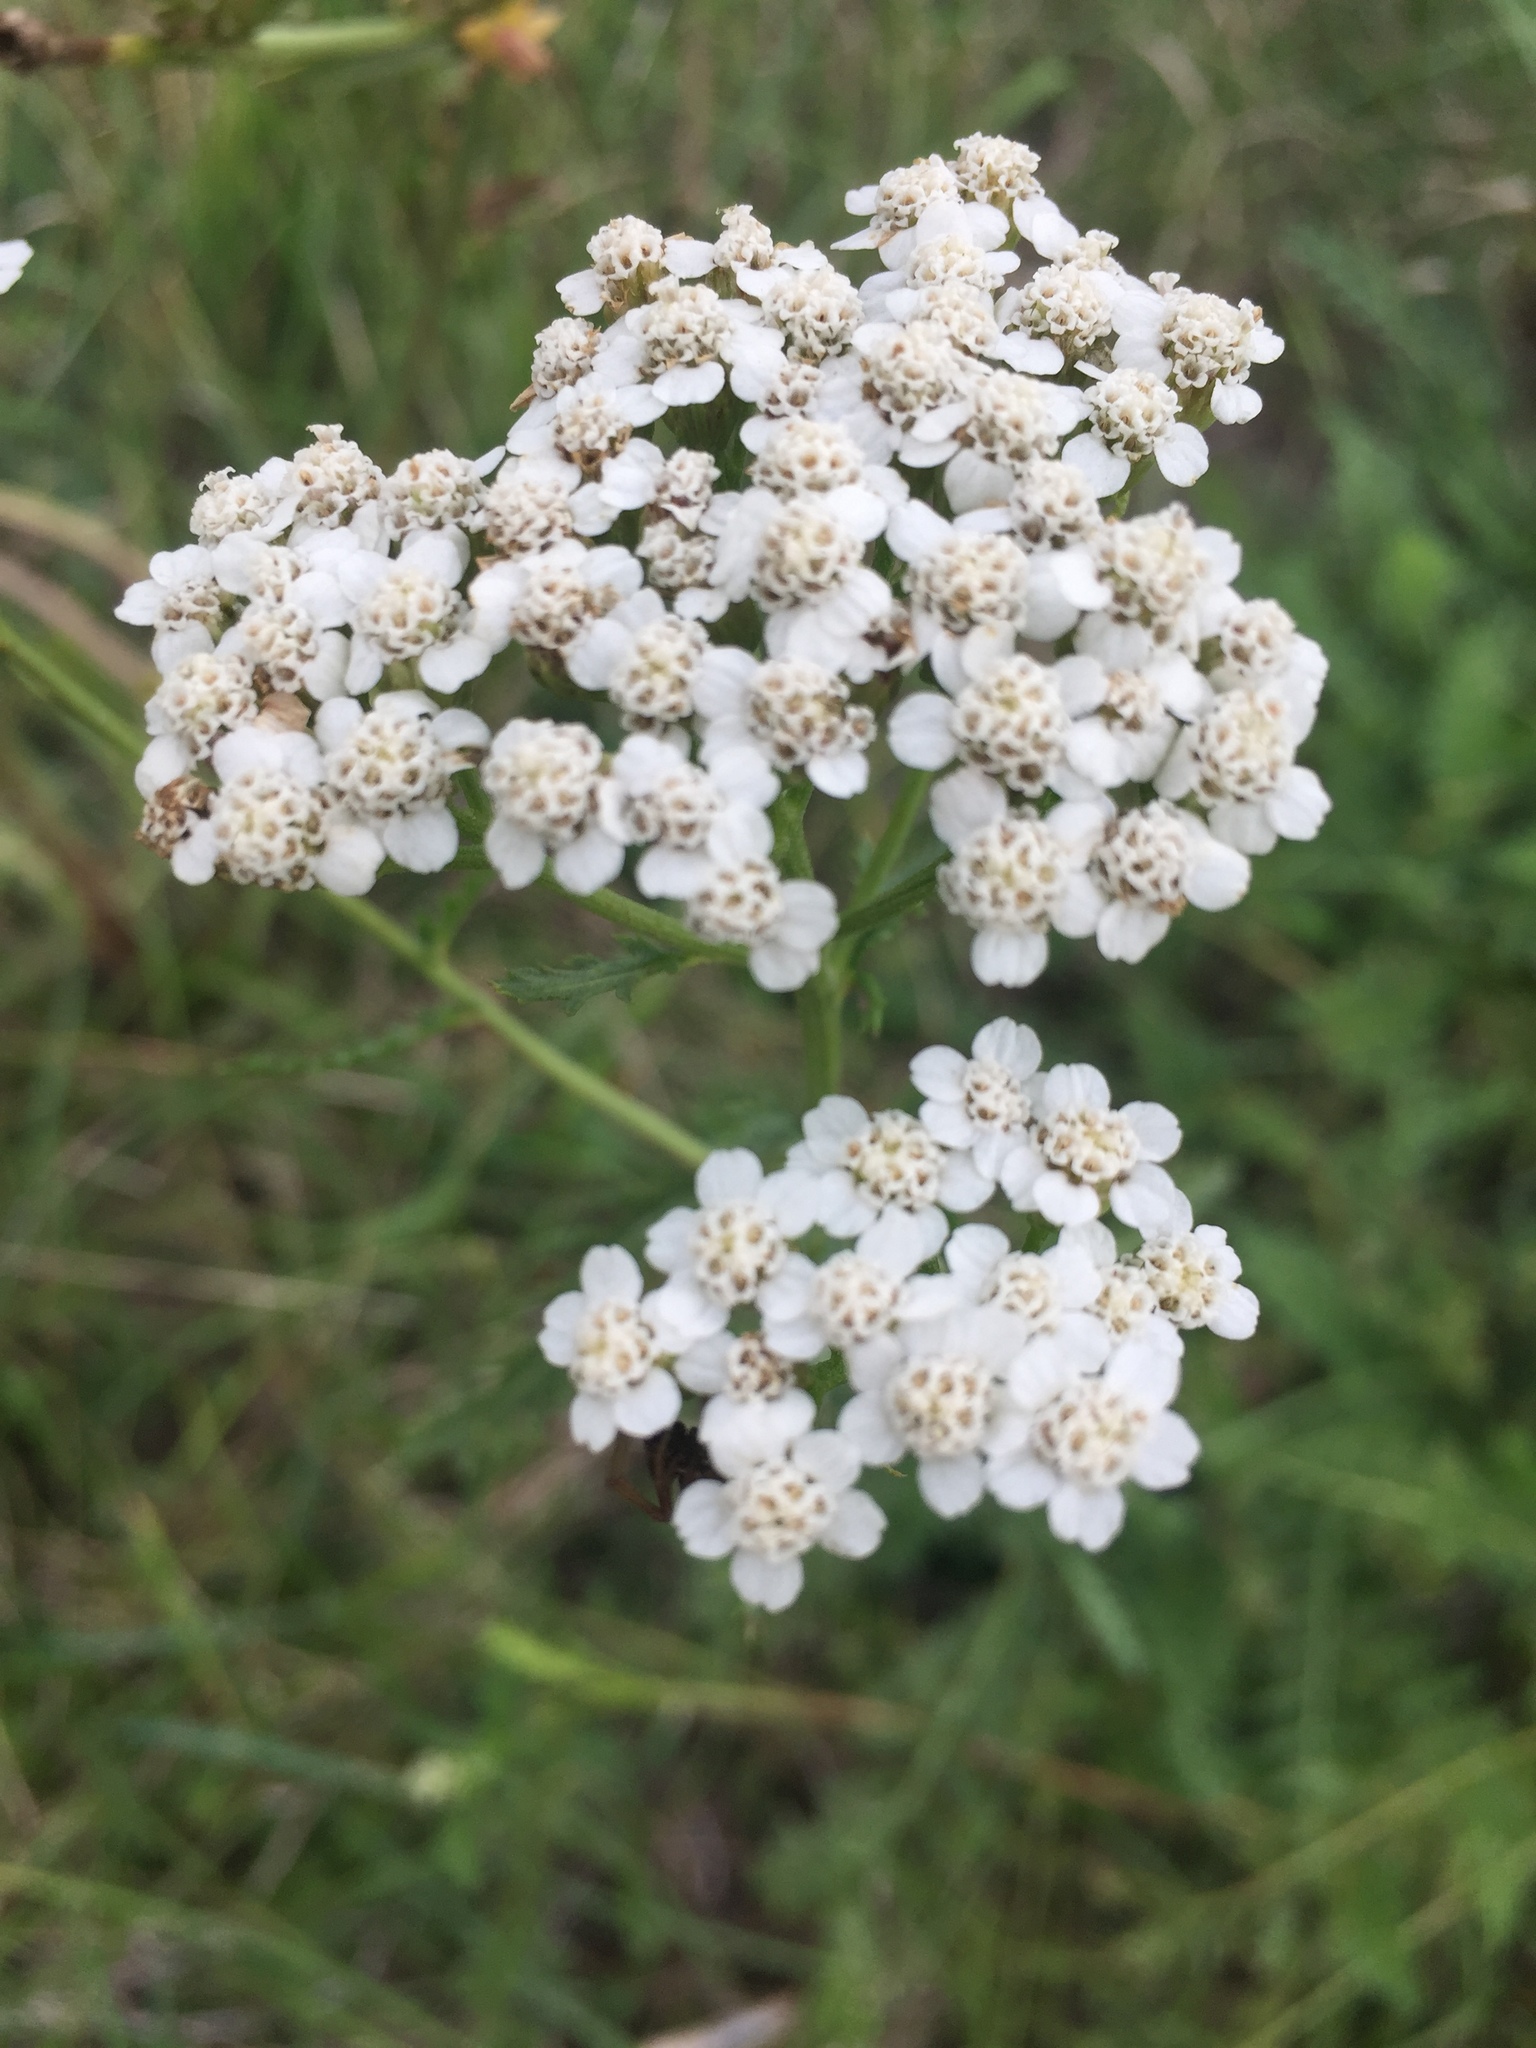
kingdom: Plantae
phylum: Tracheophyta
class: Magnoliopsida
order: Asterales
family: Asteraceae
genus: Achillea
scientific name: Achillea millefolium
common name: Yarrow
